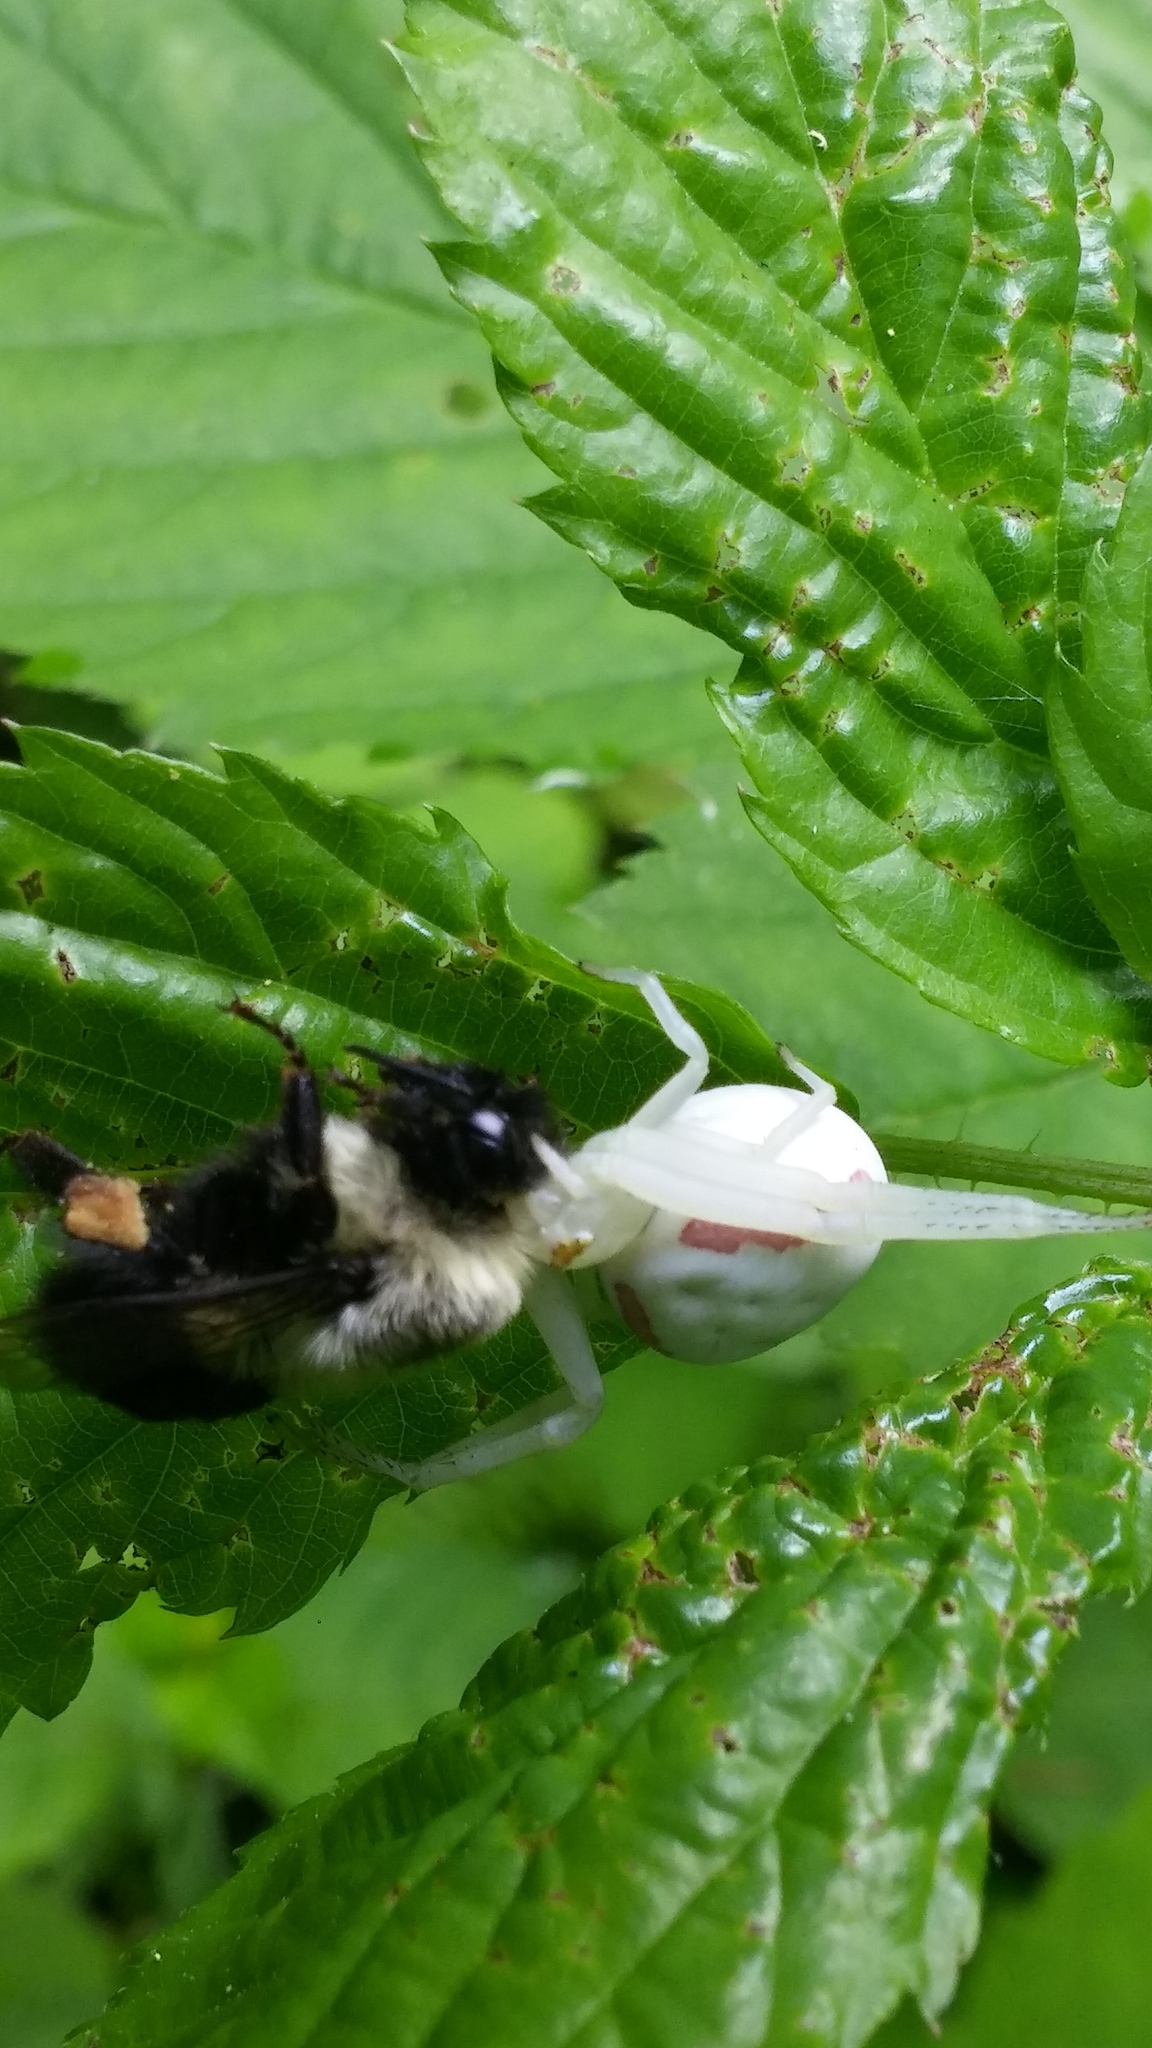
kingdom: Animalia
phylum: Arthropoda
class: Arachnida
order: Araneae
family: Thomisidae
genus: Misumena
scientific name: Misumena vatia
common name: Goldenrod crab spider
